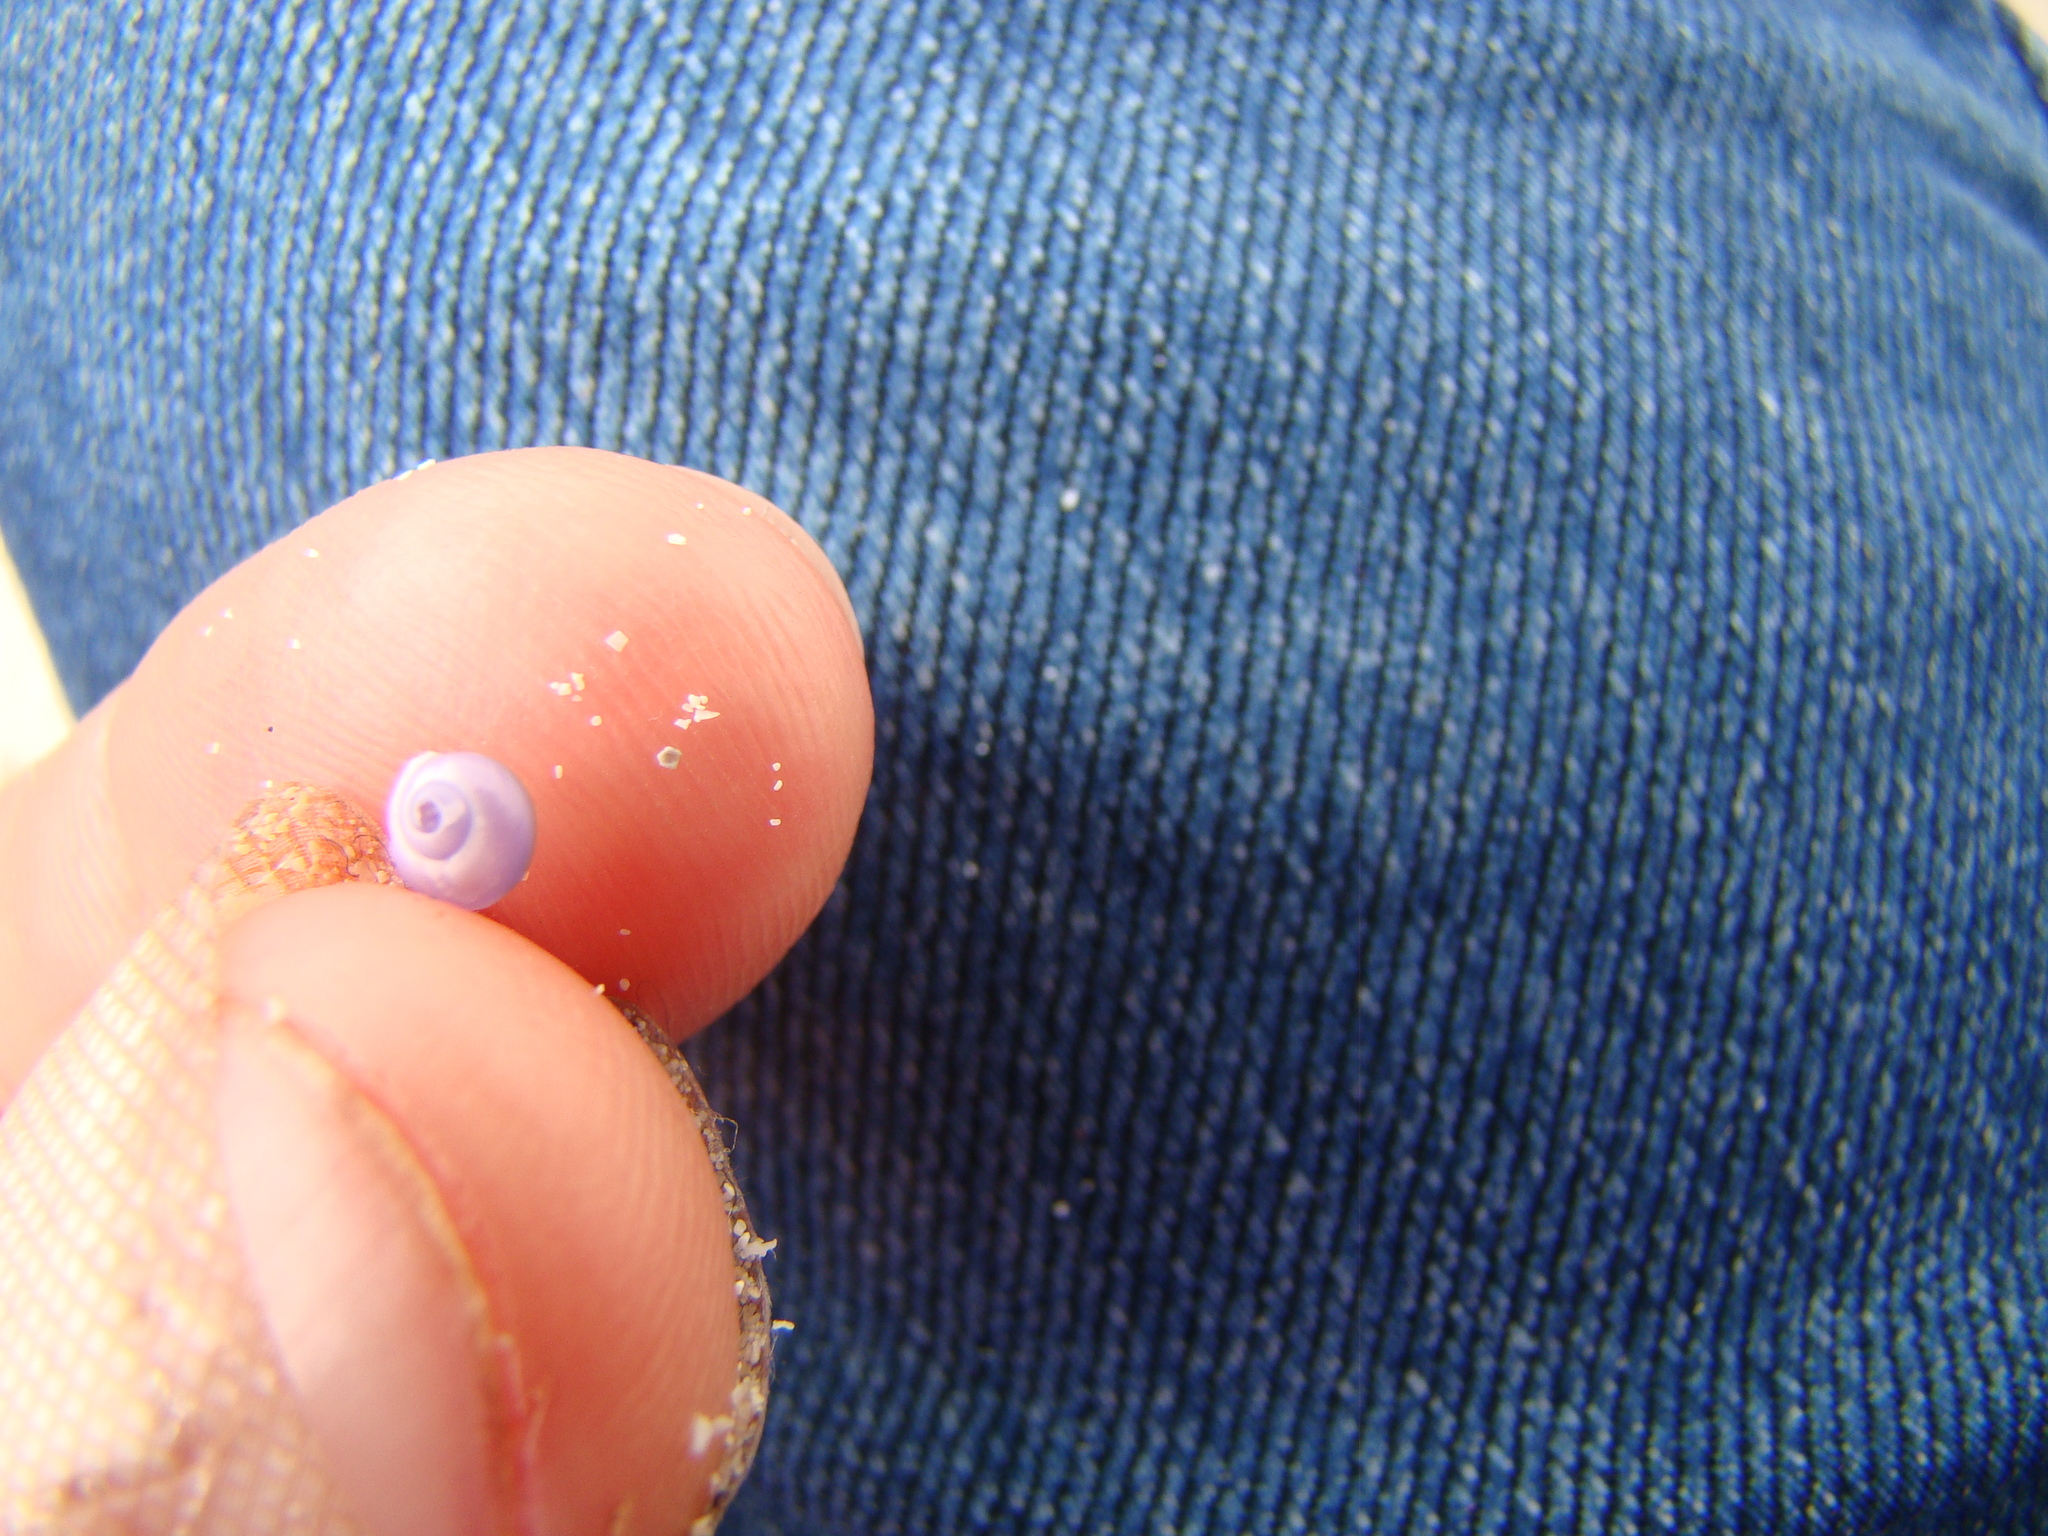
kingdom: Animalia
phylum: Mollusca
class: Gastropoda
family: Epitoniidae
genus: Janthina
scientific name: Janthina exigua
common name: Dwarf janthina
